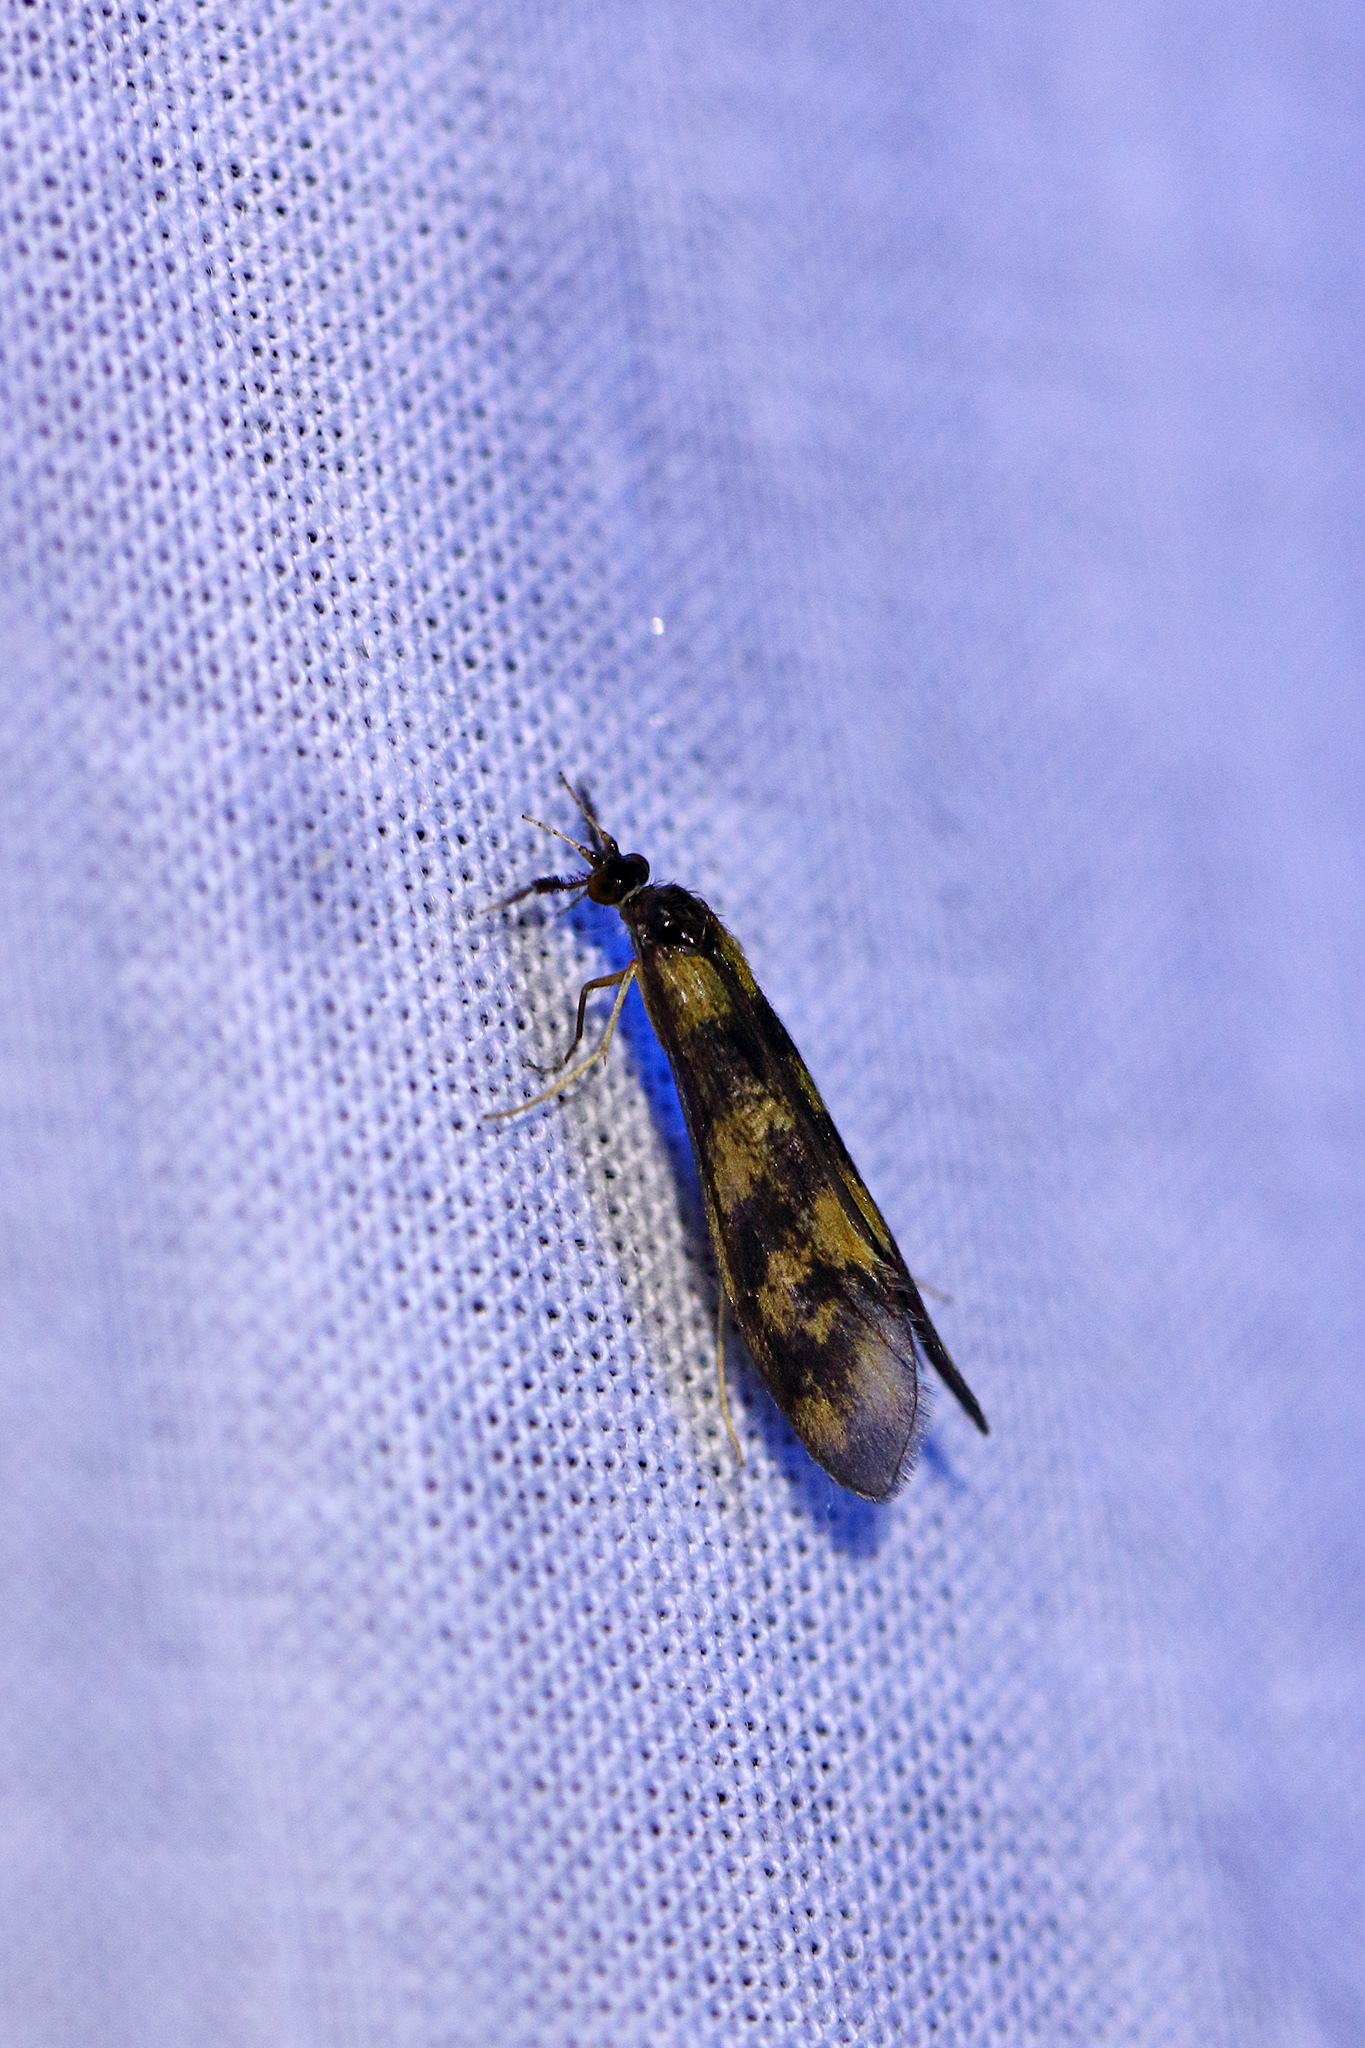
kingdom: Animalia
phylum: Arthropoda
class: Insecta
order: Trichoptera
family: Leptoceridae
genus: Mystacides
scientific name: Mystacides longicornis
